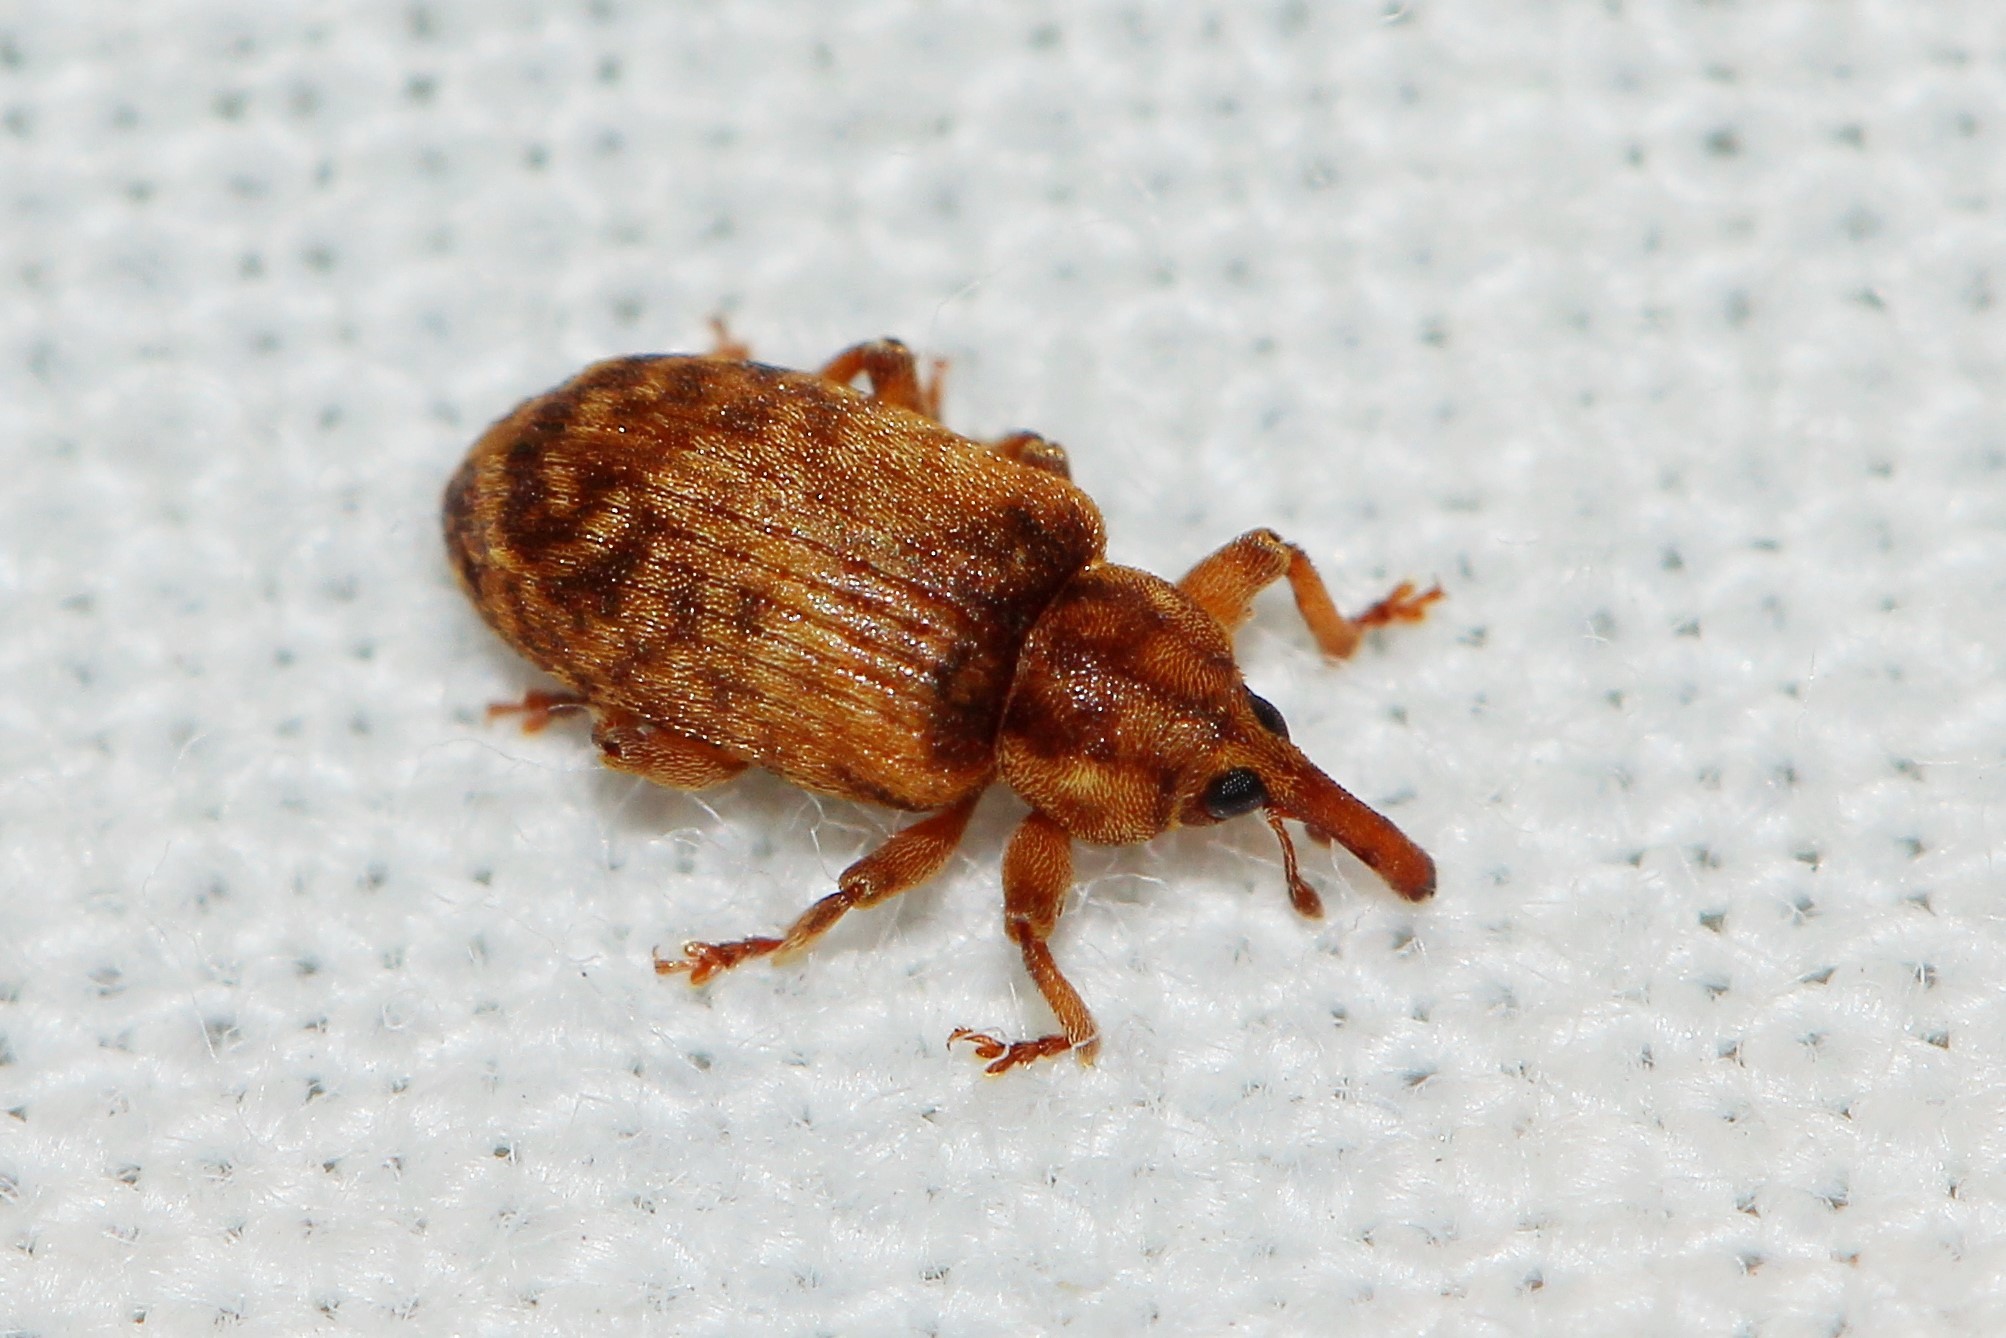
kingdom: Animalia
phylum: Arthropoda
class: Insecta
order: Coleoptera
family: Brachyceridae
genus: Erirhinus
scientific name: Erirhinus nebulosus
